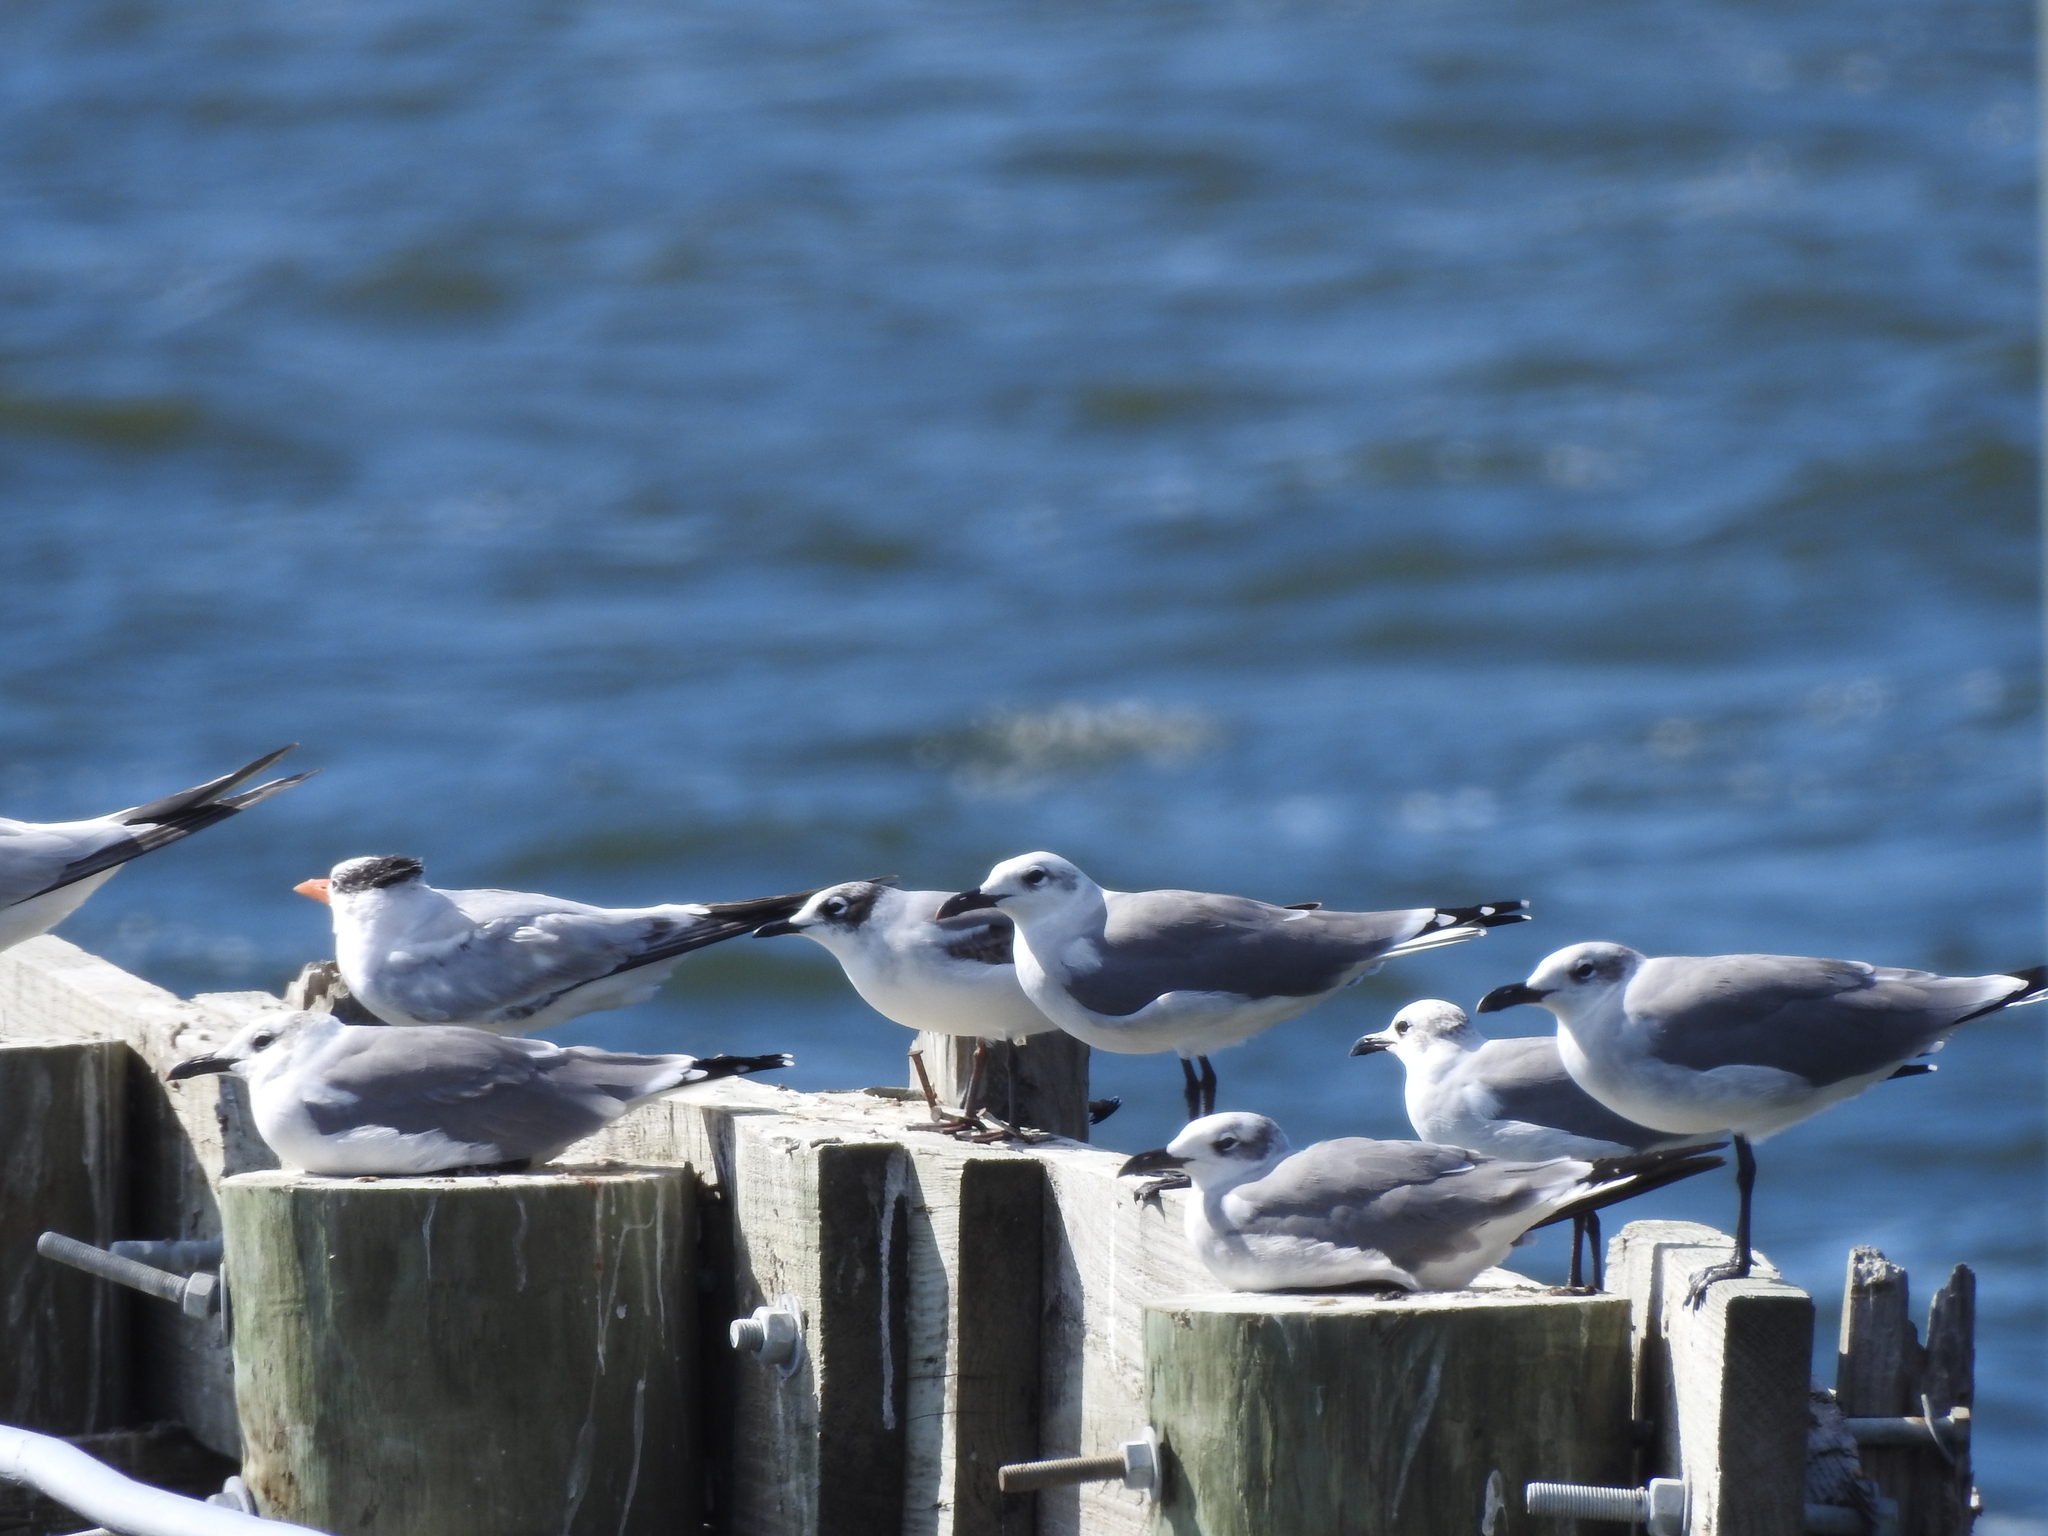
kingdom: Animalia
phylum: Chordata
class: Aves
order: Charadriiformes
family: Laridae
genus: Leucophaeus
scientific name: Leucophaeus pipixcan
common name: Franklin's gull
